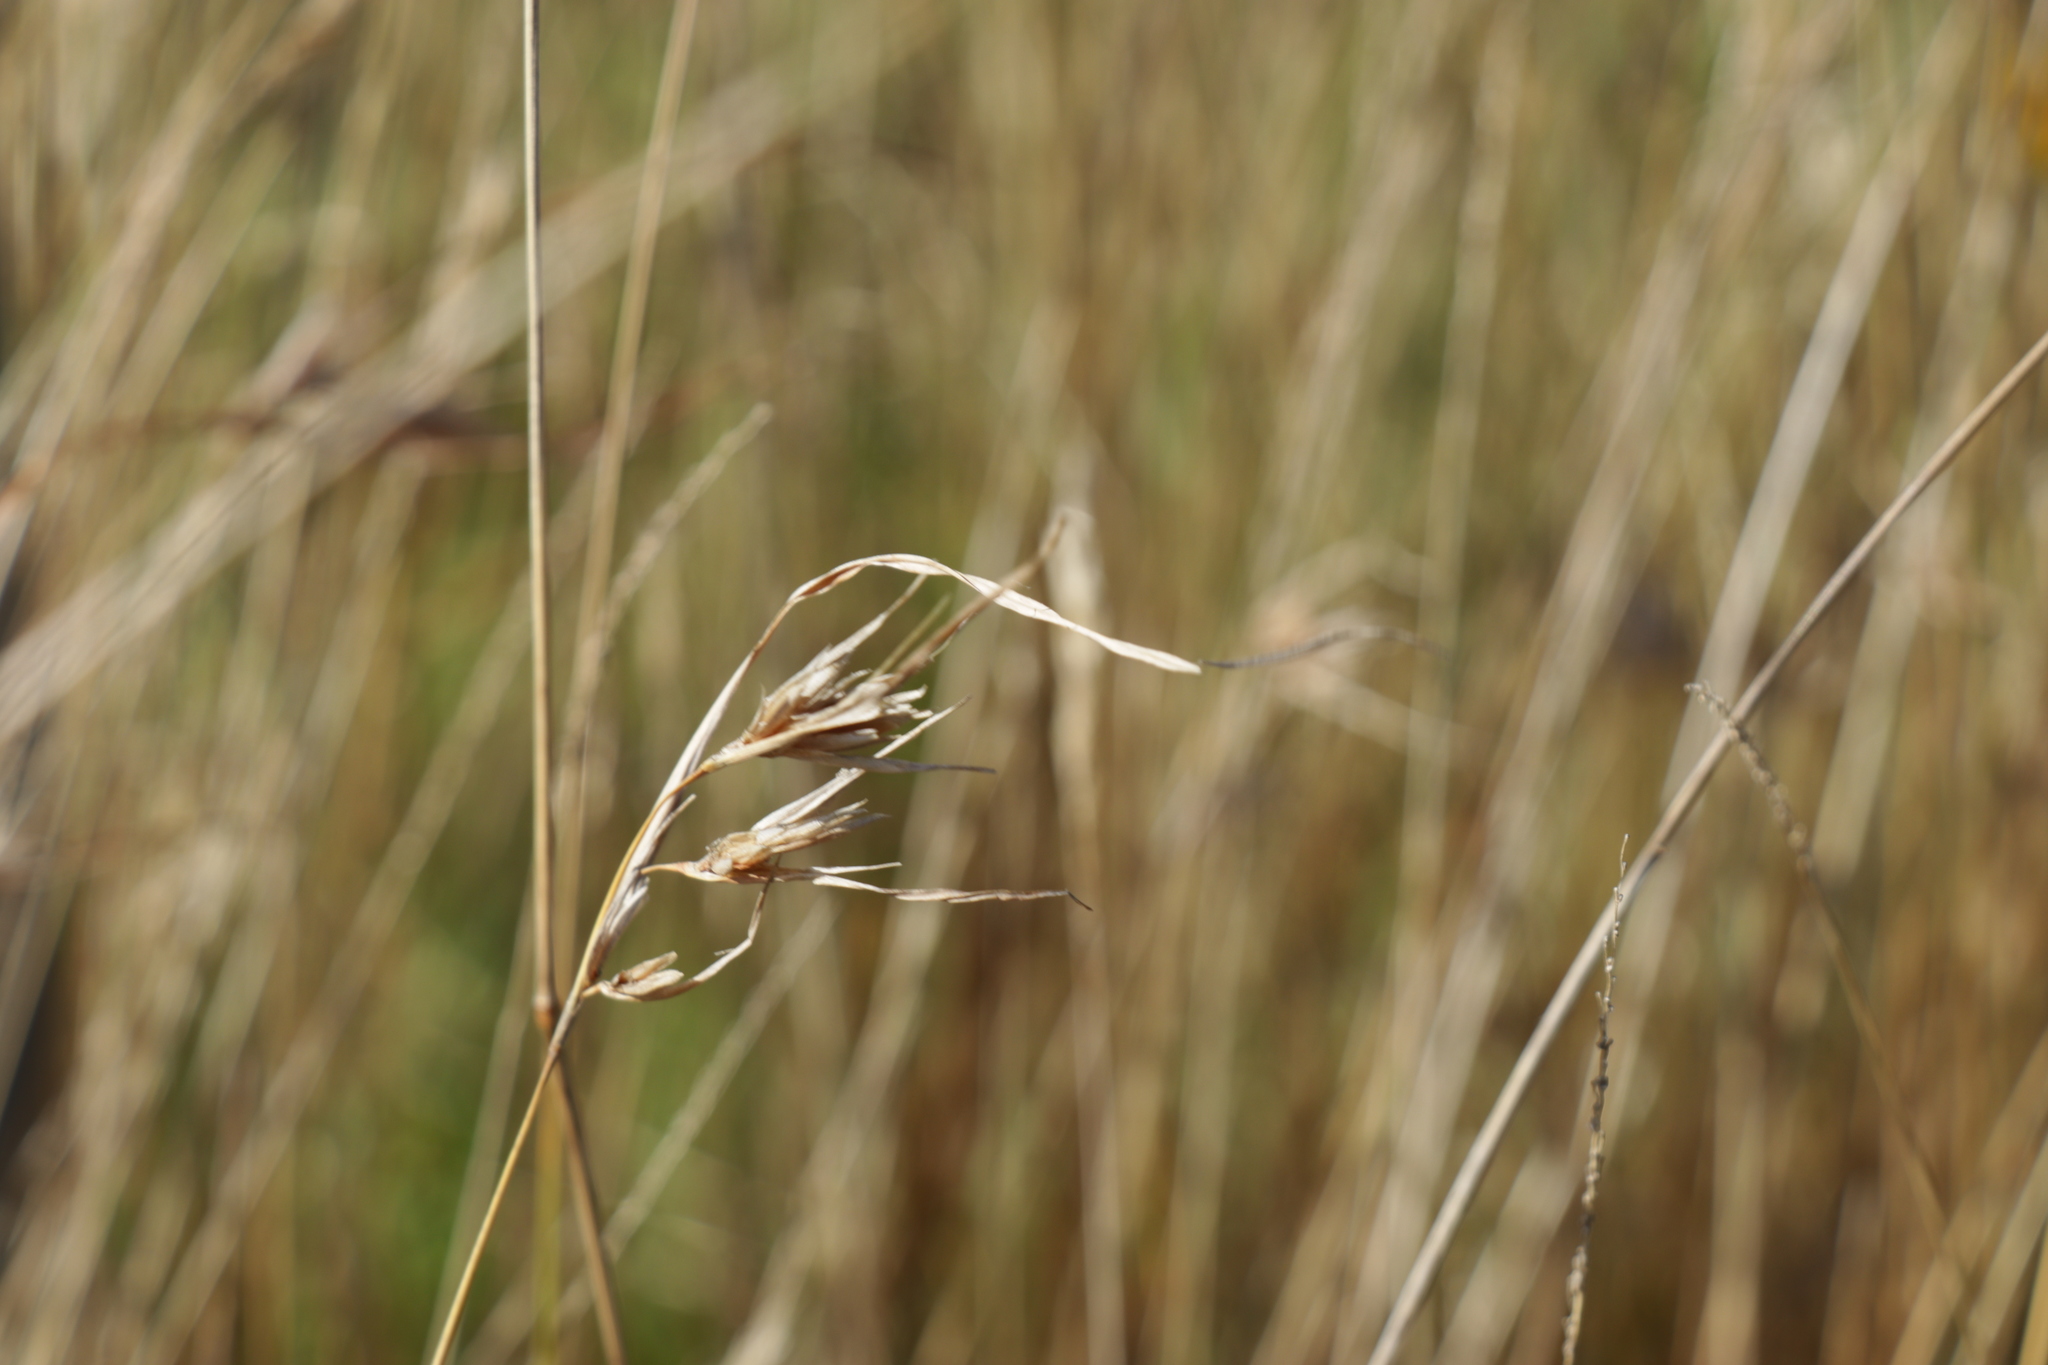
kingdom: Plantae
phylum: Tracheophyta
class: Liliopsida
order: Poales
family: Poaceae
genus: Themeda
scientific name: Themeda triandra
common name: Kangaroo grass
